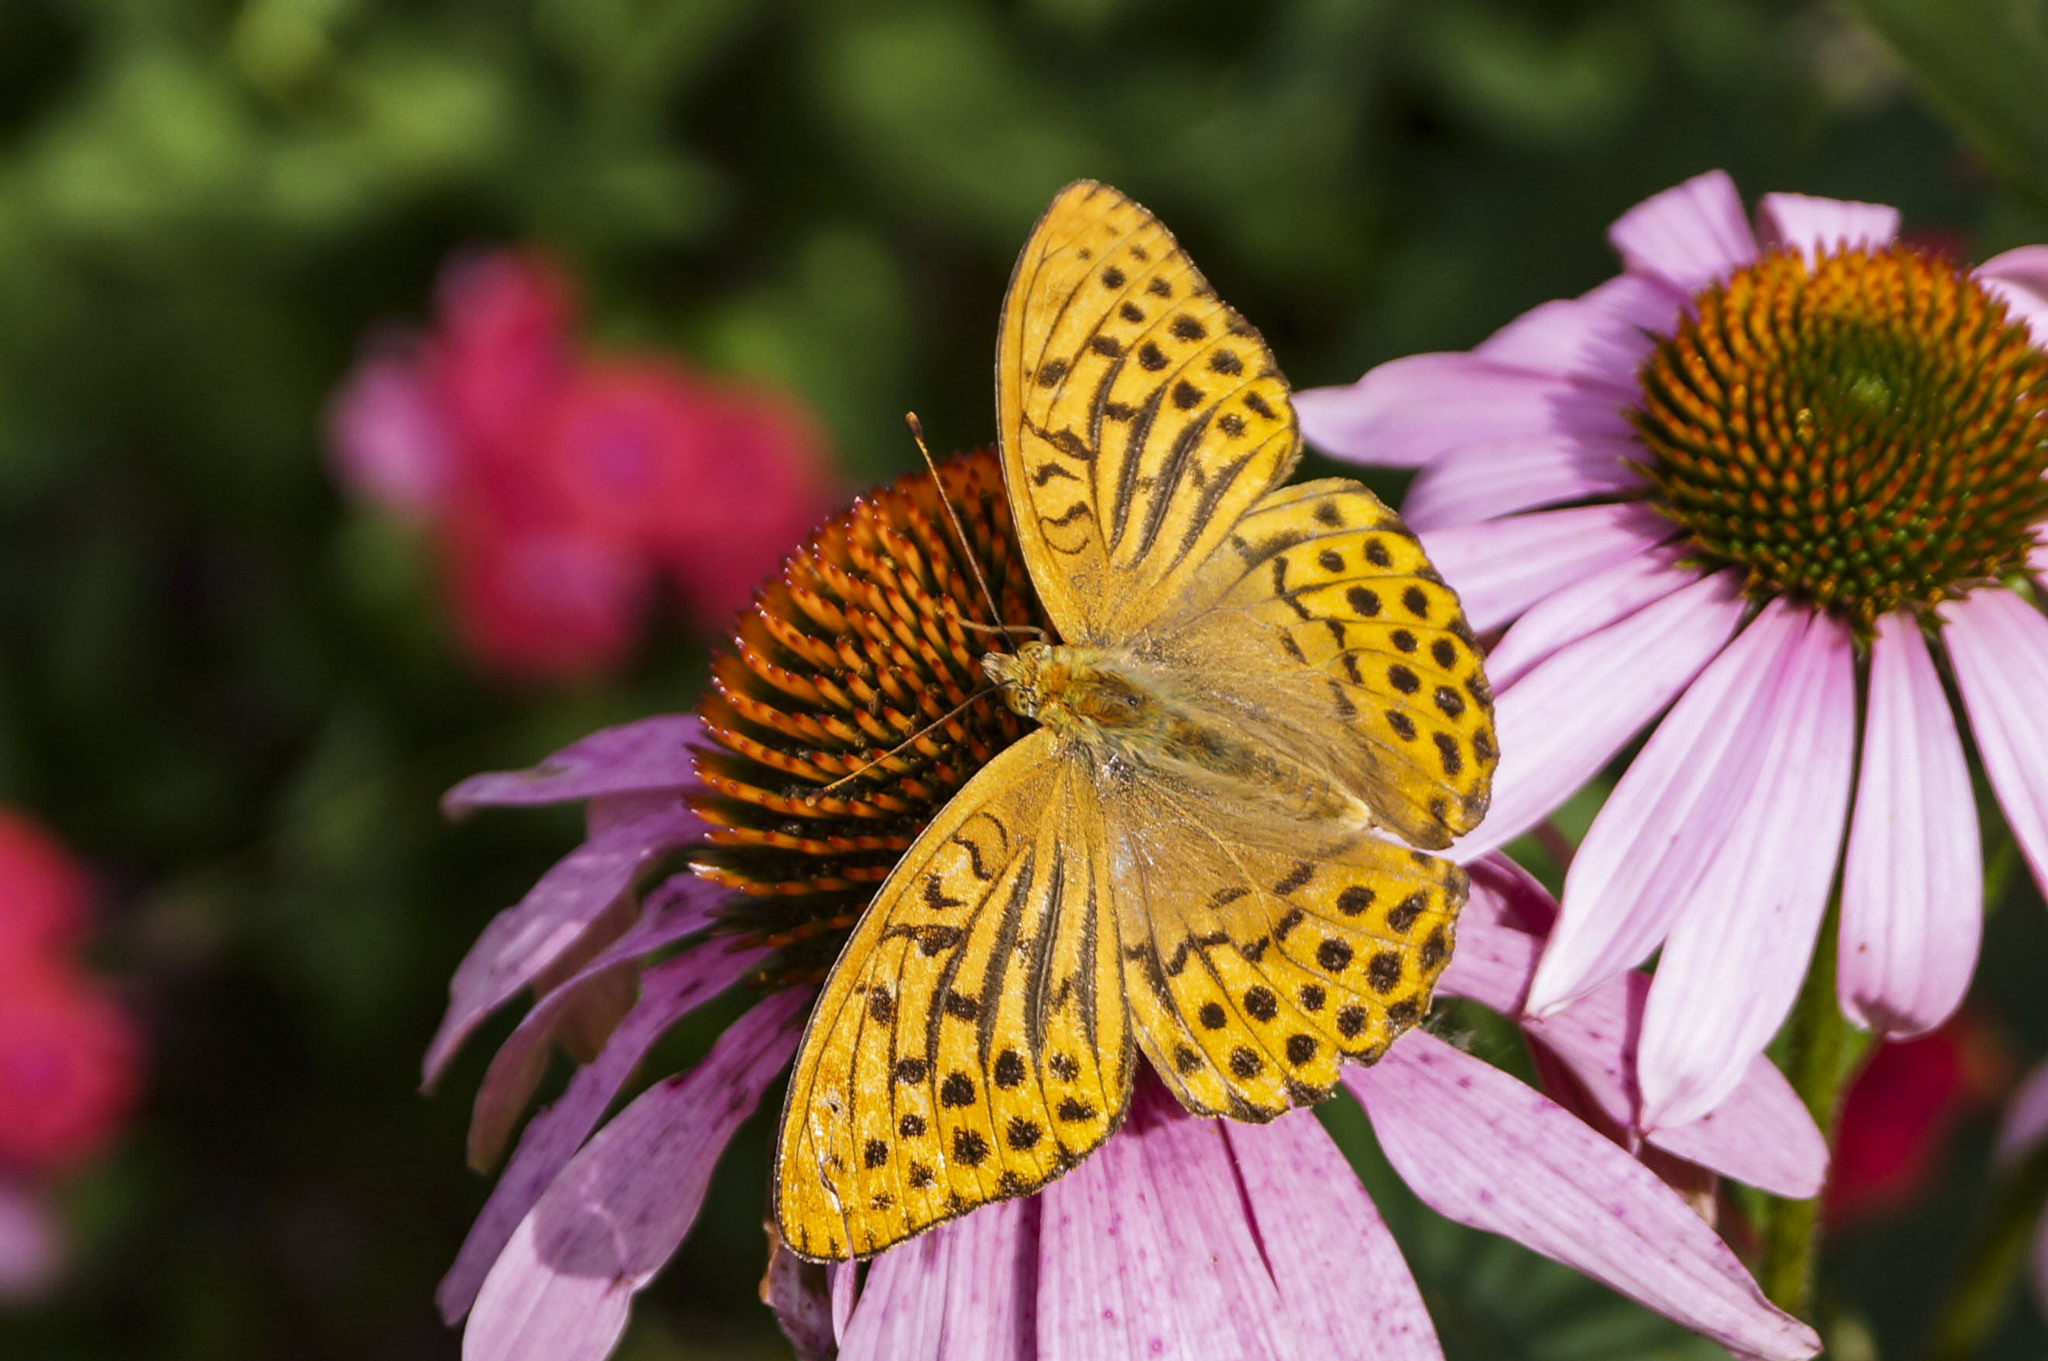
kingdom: Animalia
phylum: Arthropoda
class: Insecta
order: Lepidoptera
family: Nymphalidae
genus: Argynnis
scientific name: Argynnis paphia
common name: Silver-washed fritillary
